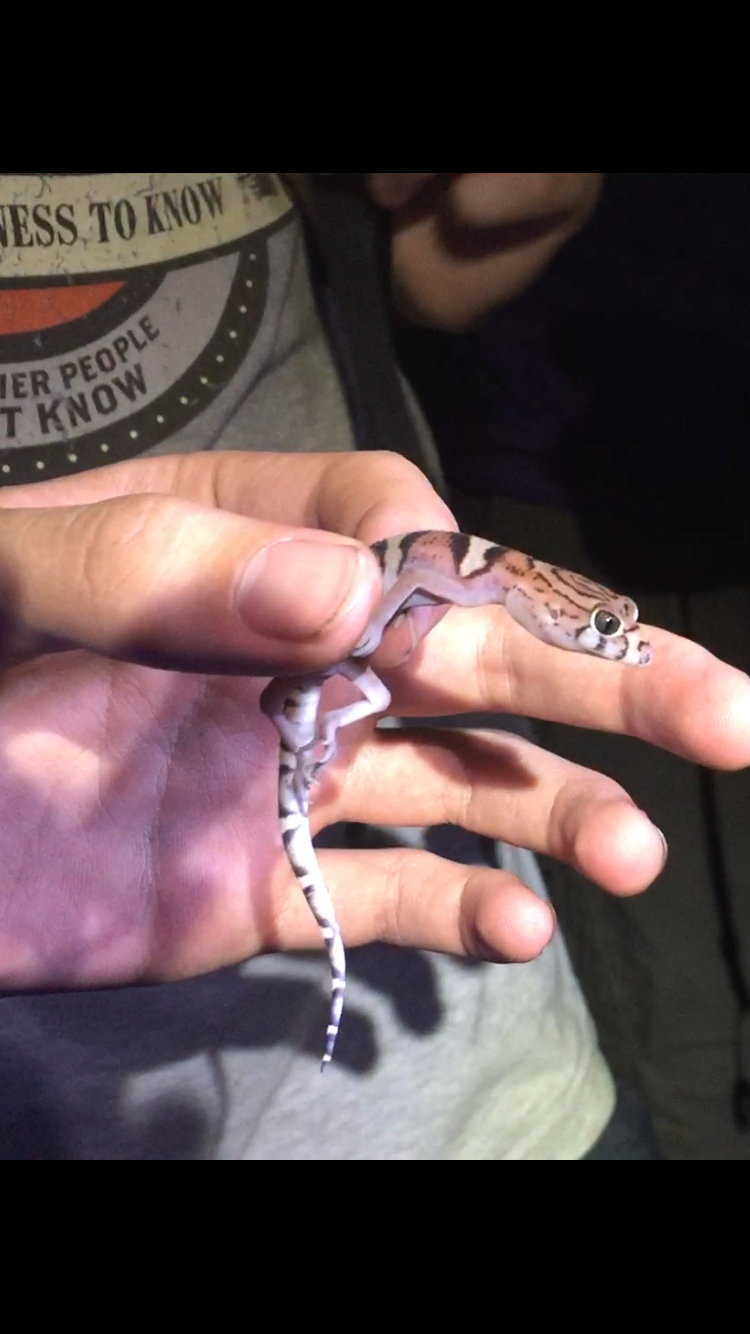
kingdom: Animalia
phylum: Chordata
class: Squamata
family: Eublepharidae
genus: Coleonyx
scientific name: Coleonyx elegans
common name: Yucatan banded gecko
